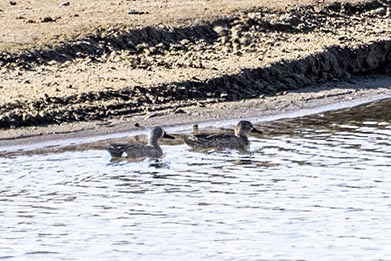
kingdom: Animalia
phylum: Chordata
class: Aves
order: Anseriformes
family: Anatidae
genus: Spatula
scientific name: Spatula discors
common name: Blue-winged teal
